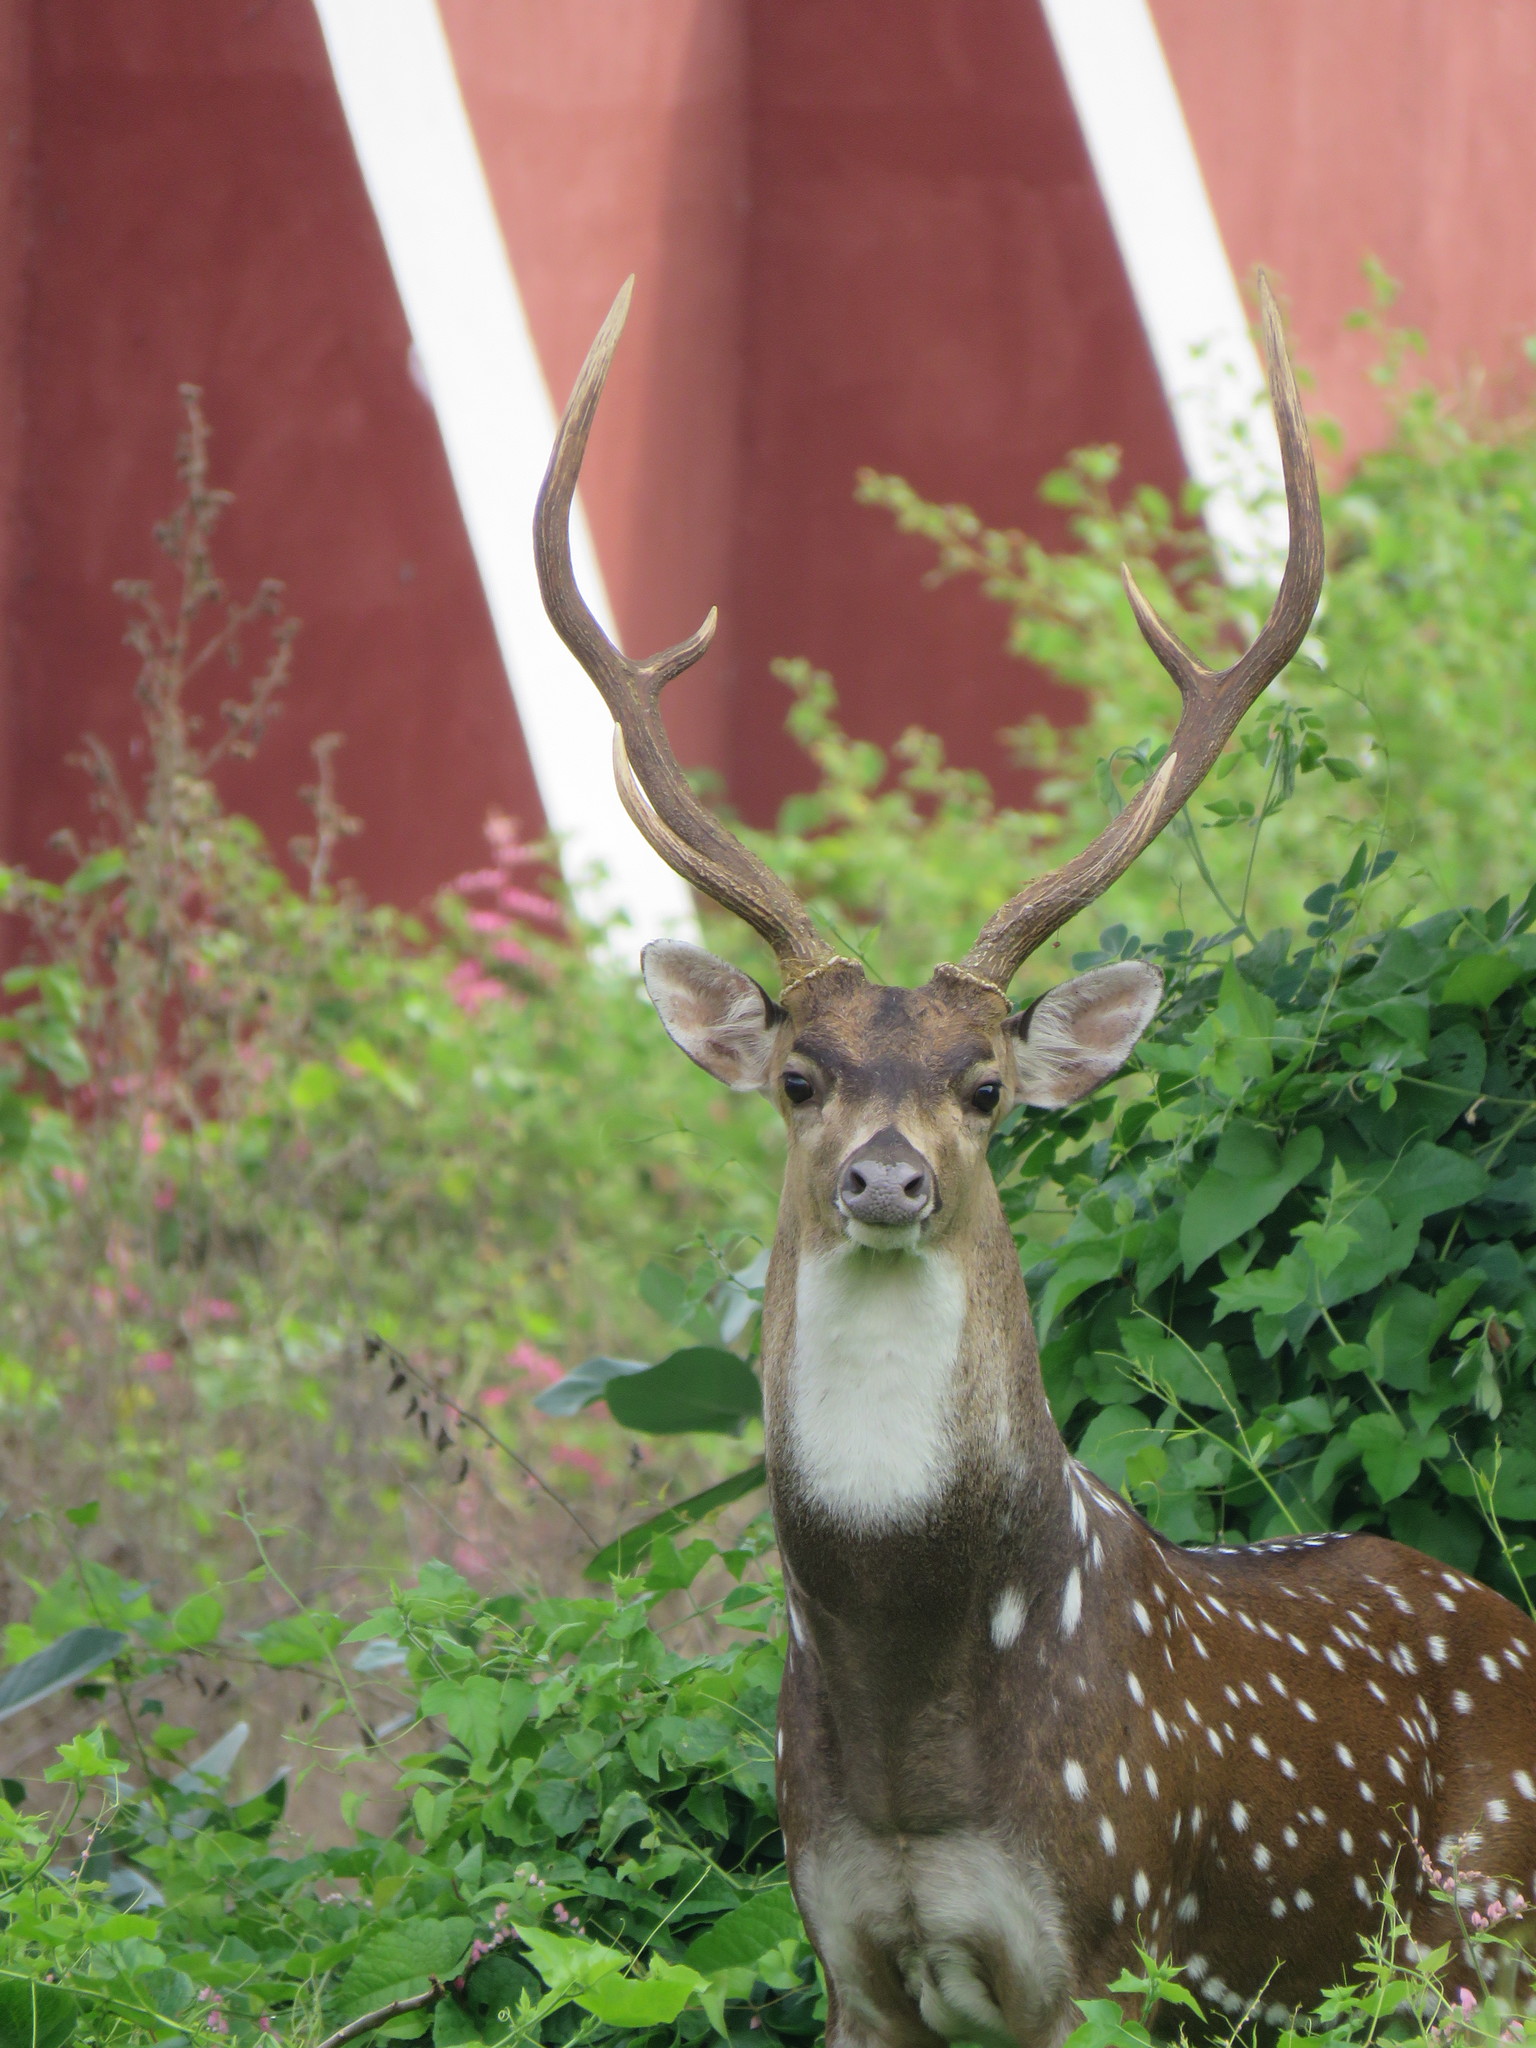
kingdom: Animalia
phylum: Chordata
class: Mammalia
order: Artiodactyla
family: Cervidae
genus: Axis
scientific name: Axis axis
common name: Chital
